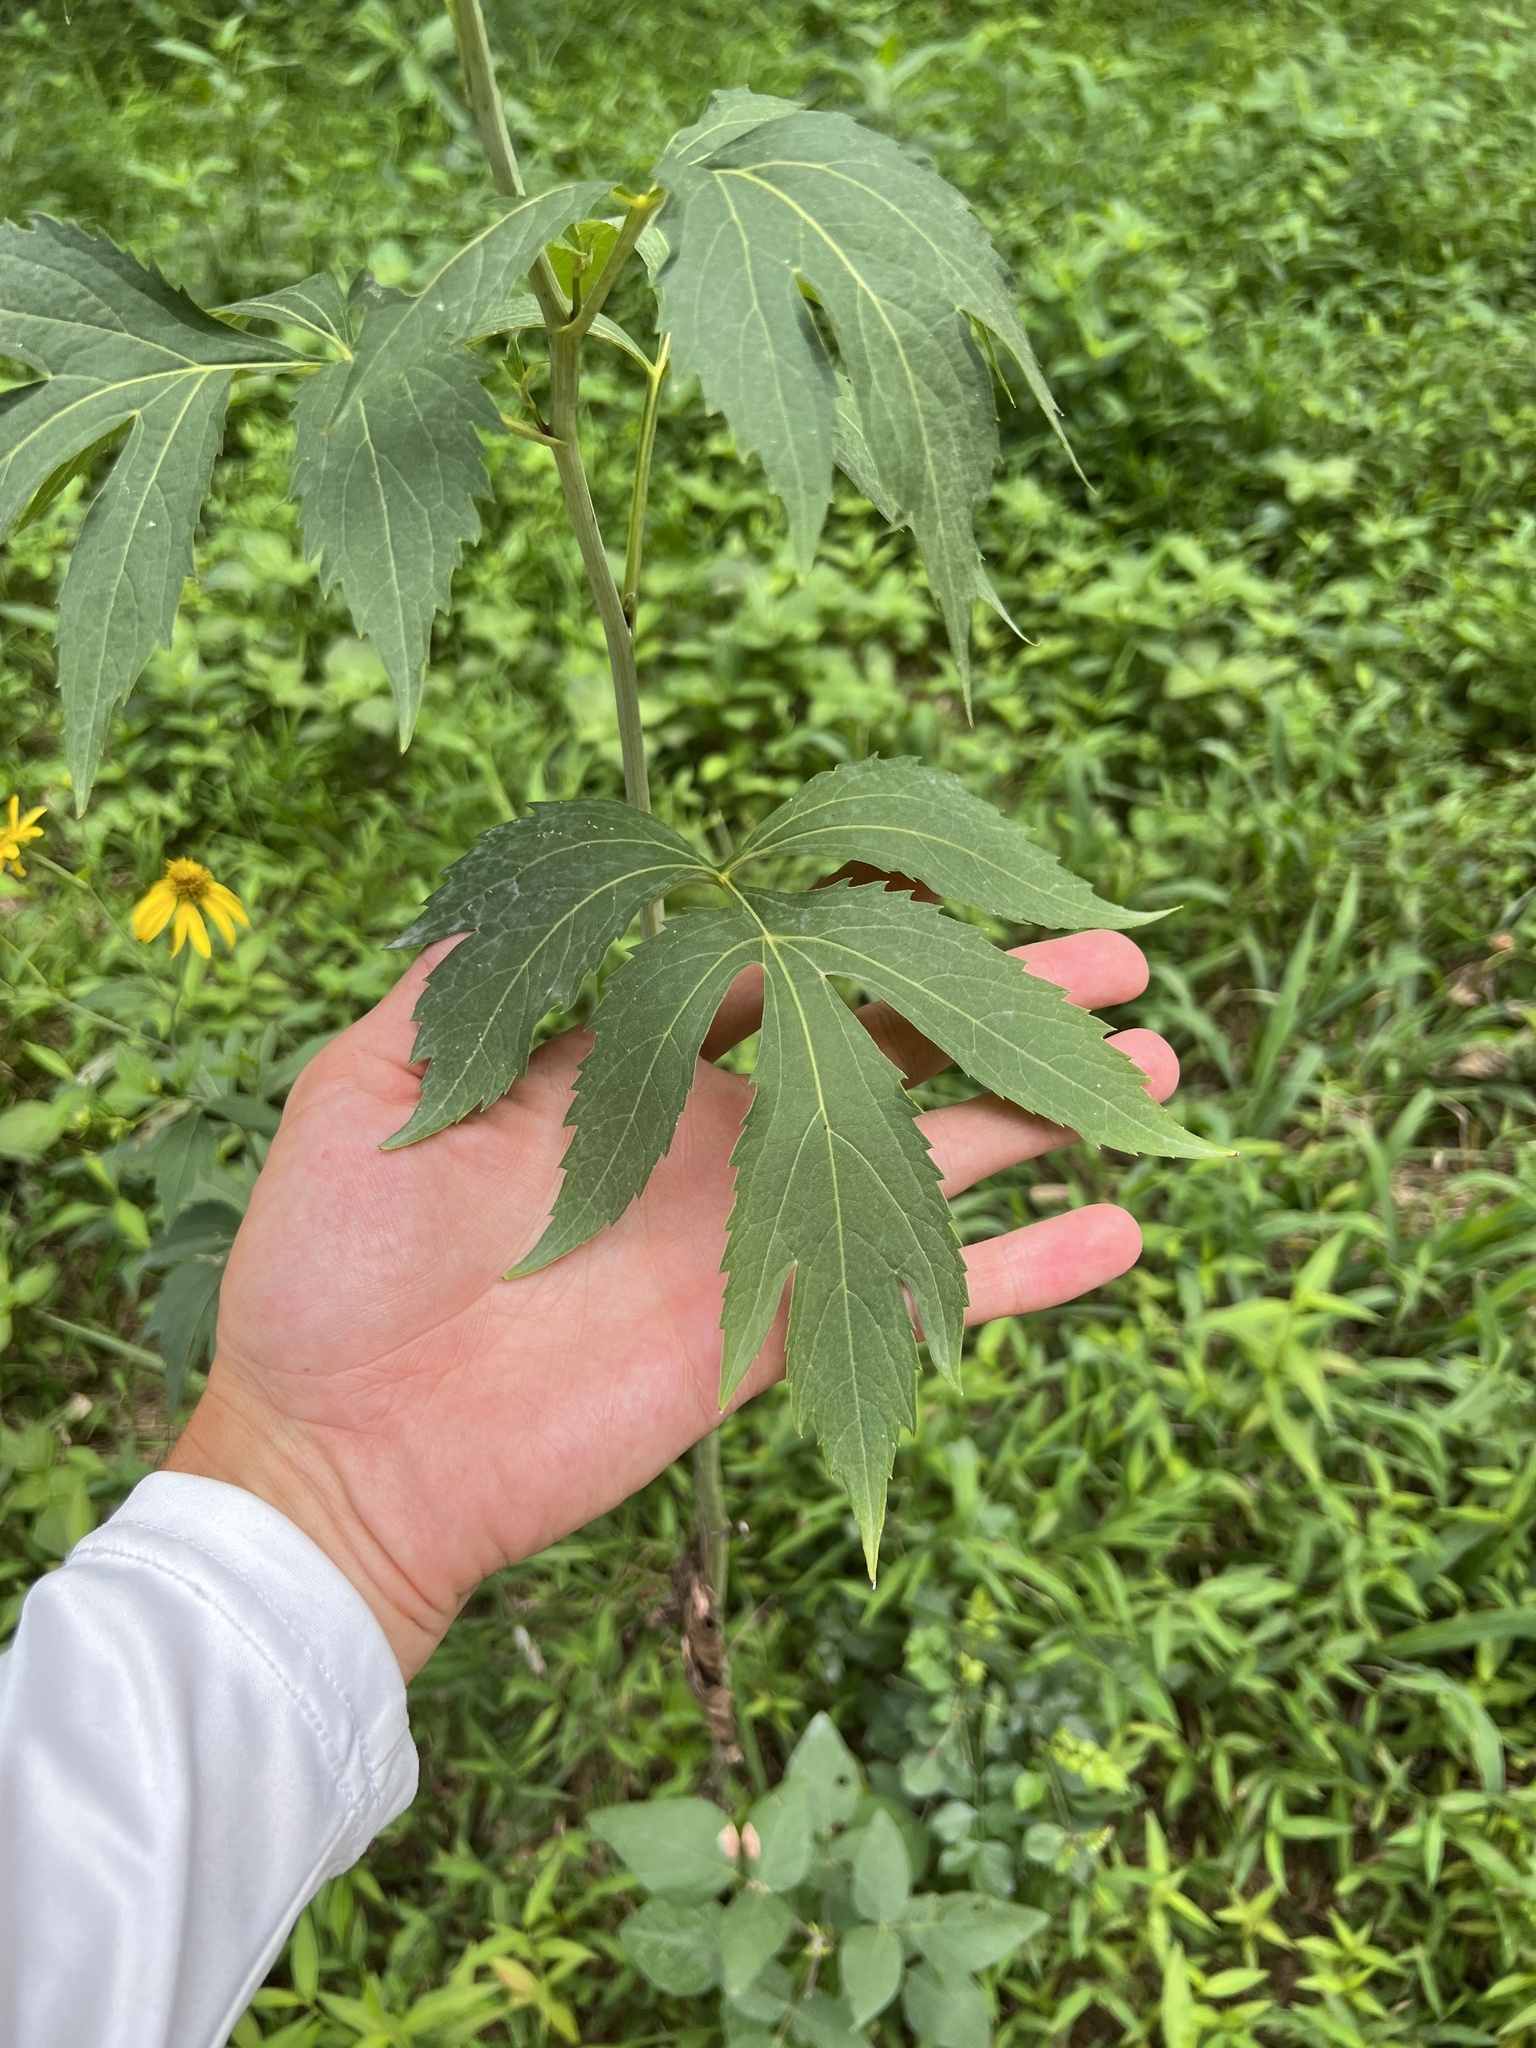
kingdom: Plantae
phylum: Tracheophyta
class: Magnoliopsida
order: Asterales
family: Asteraceae
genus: Rudbeckia
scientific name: Rudbeckia laciniata
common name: Coneflower
